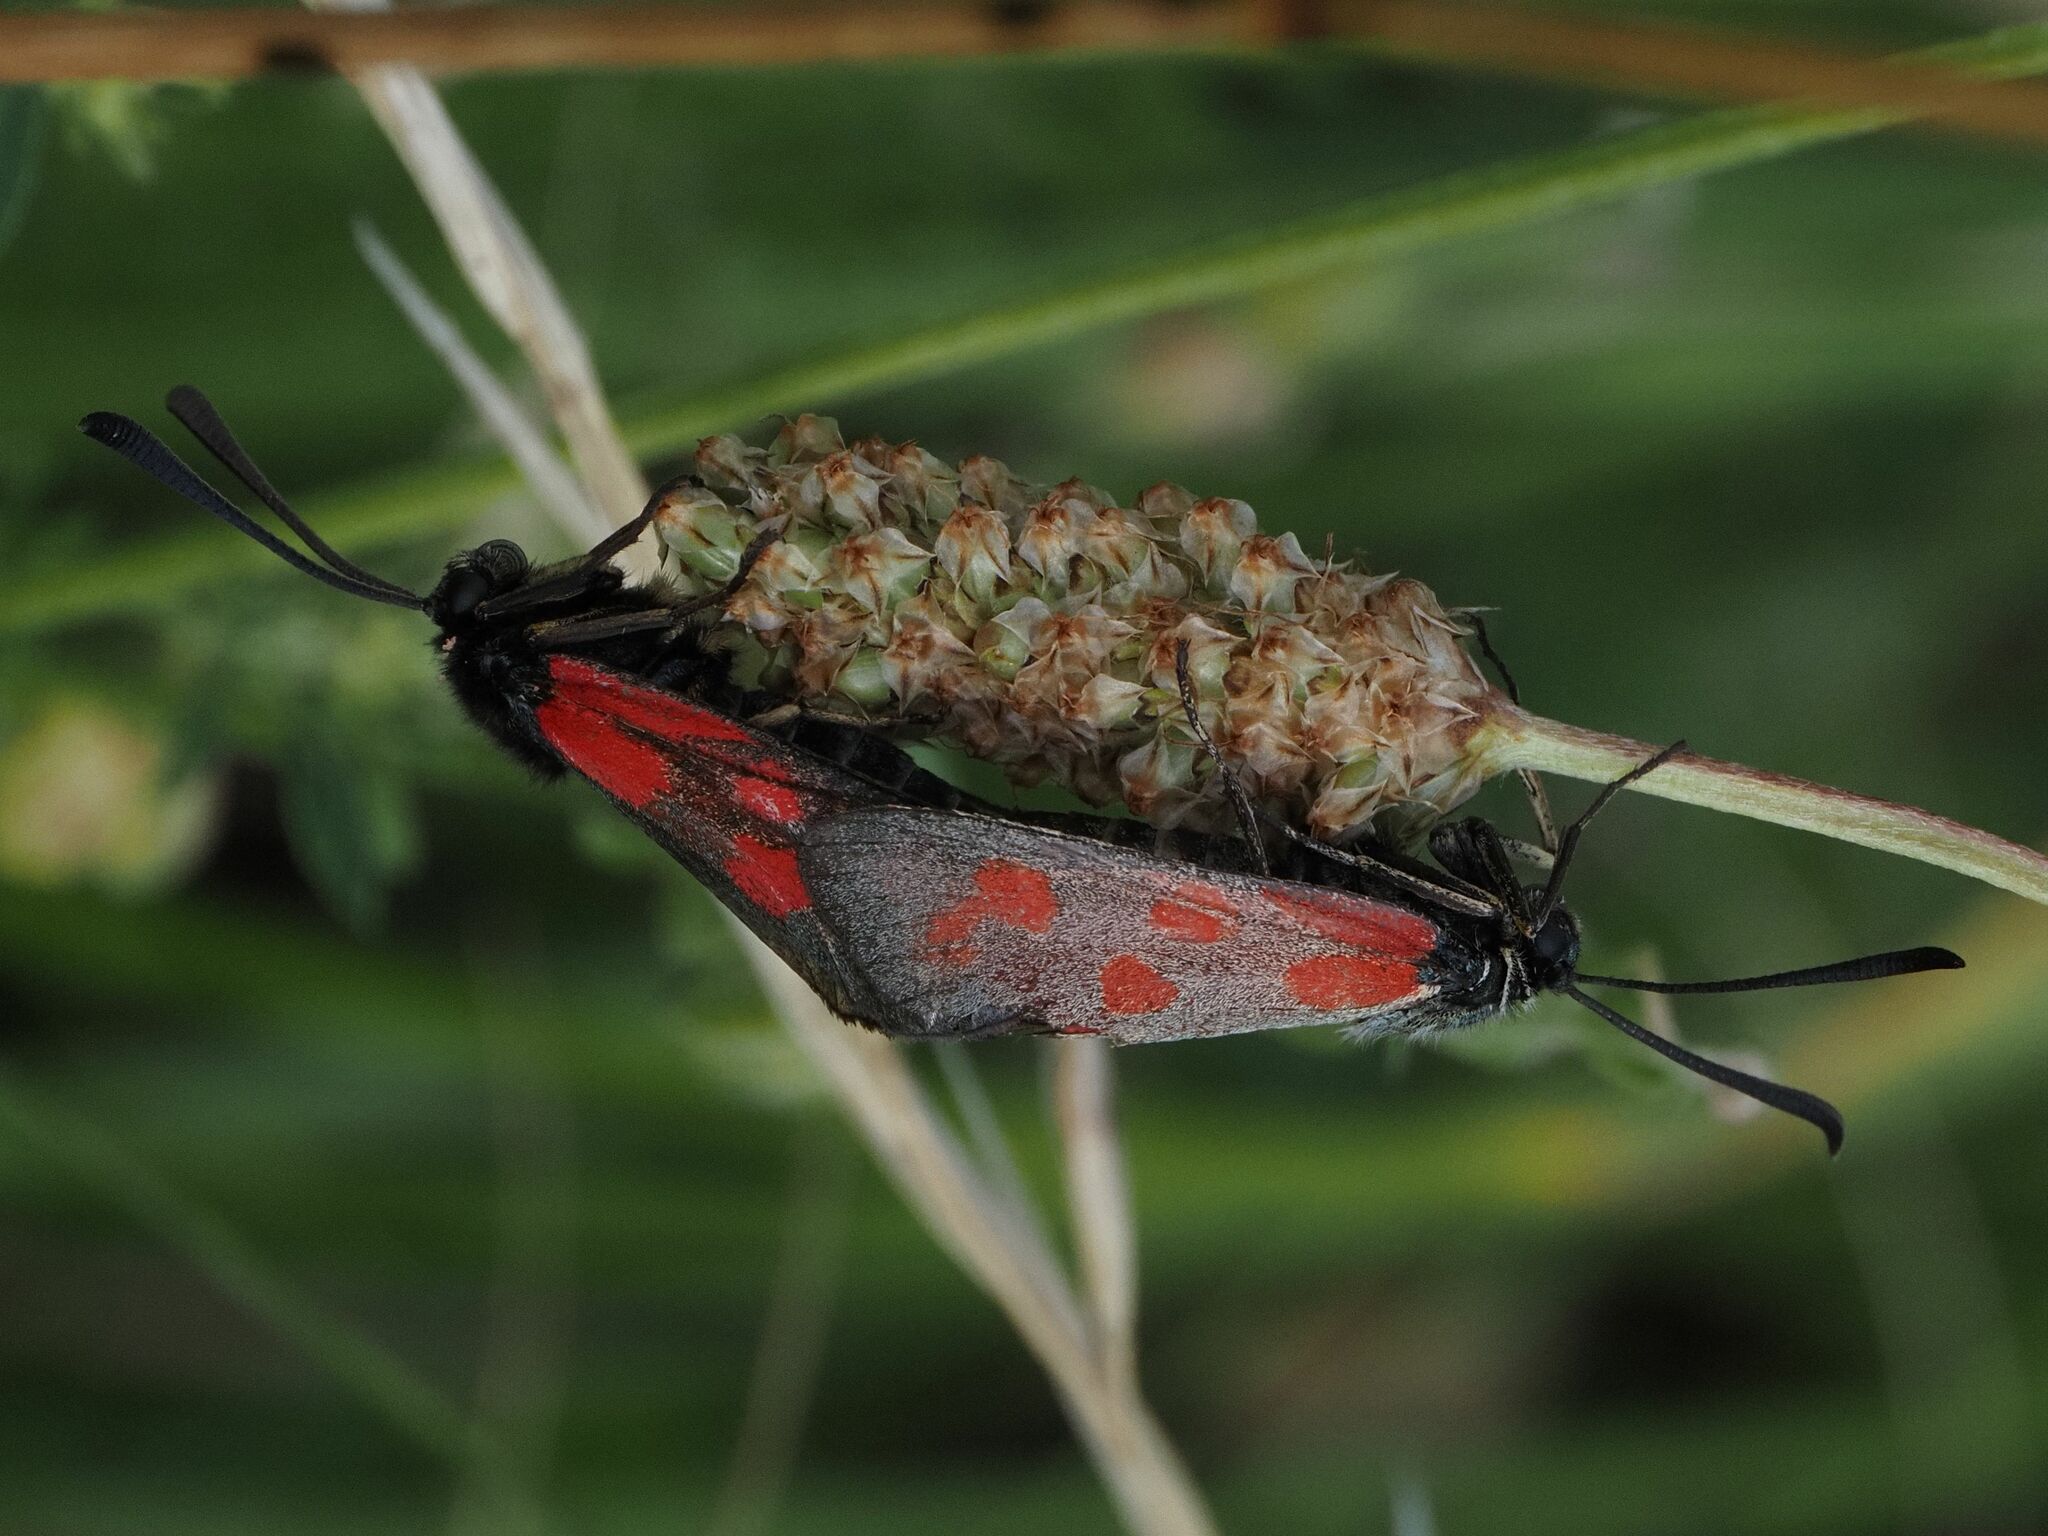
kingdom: Animalia
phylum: Arthropoda
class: Insecta
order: Lepidoptera
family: Zygaenidae
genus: Zygaena
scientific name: Zygaena loti
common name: Slender scotch burnet
